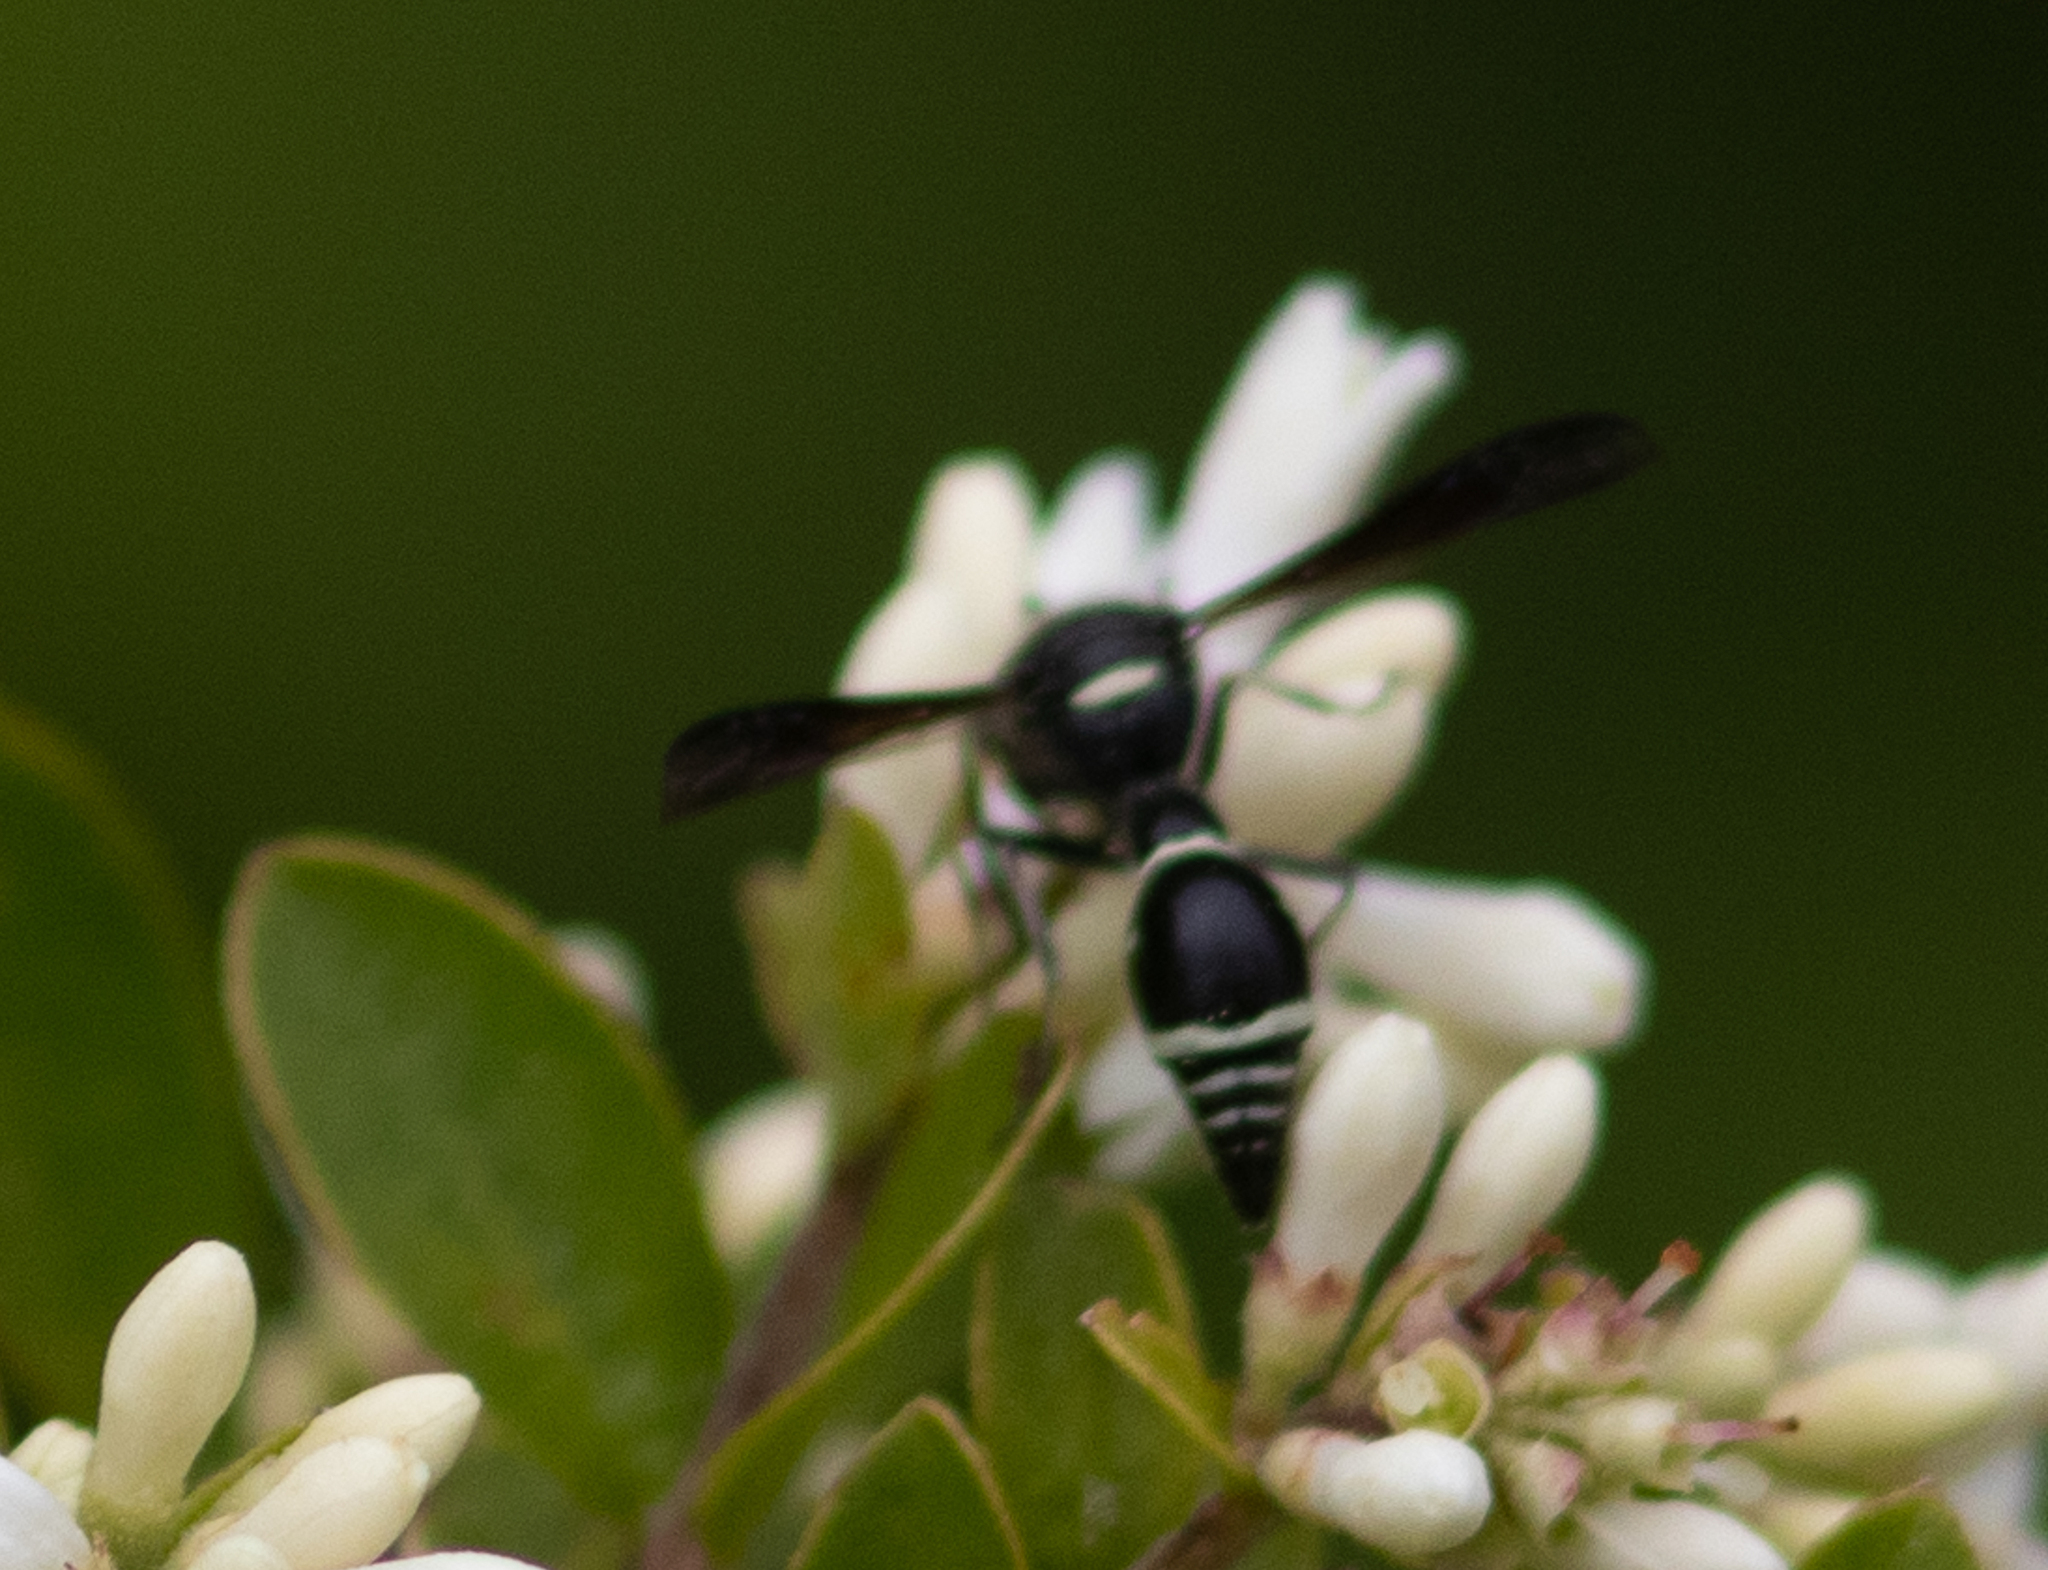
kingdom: Animalia
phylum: Arthropoda
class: Insecta
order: Hymenoptera
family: Vespidae
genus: Eumenes
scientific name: Eumenes fraternus
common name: Fraternal potter wasp
